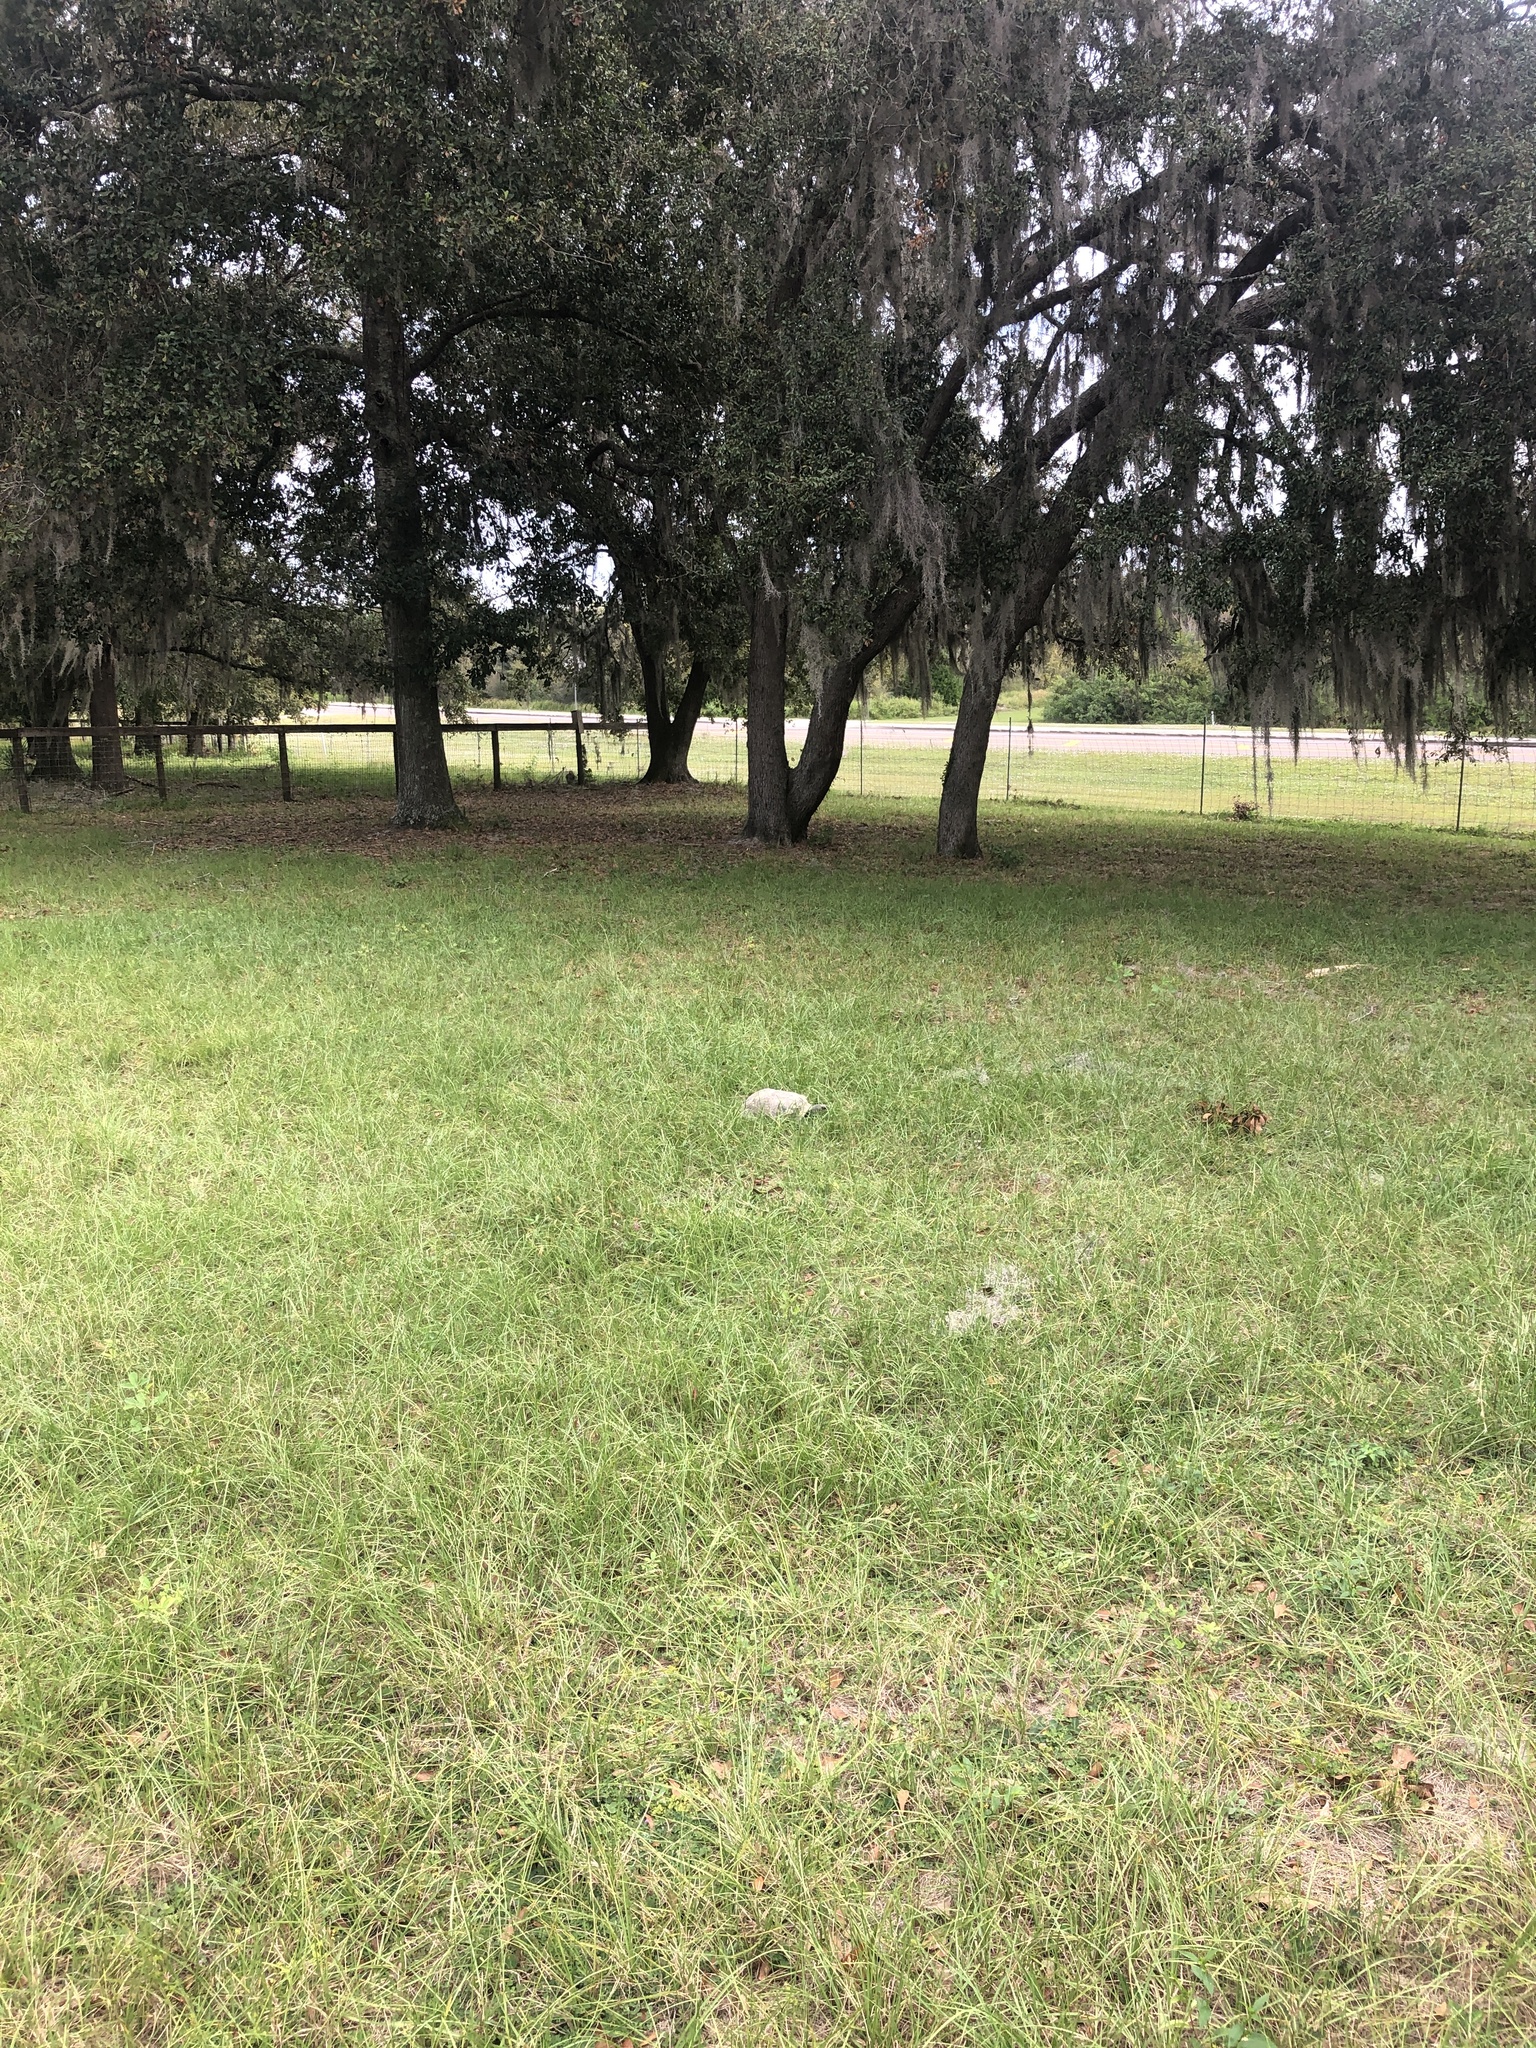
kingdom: Animalia
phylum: Chordata
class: Testudines
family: Testudinidae
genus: Gopherus
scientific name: Gopherus polyphemus
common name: Florida gopher tortoise
